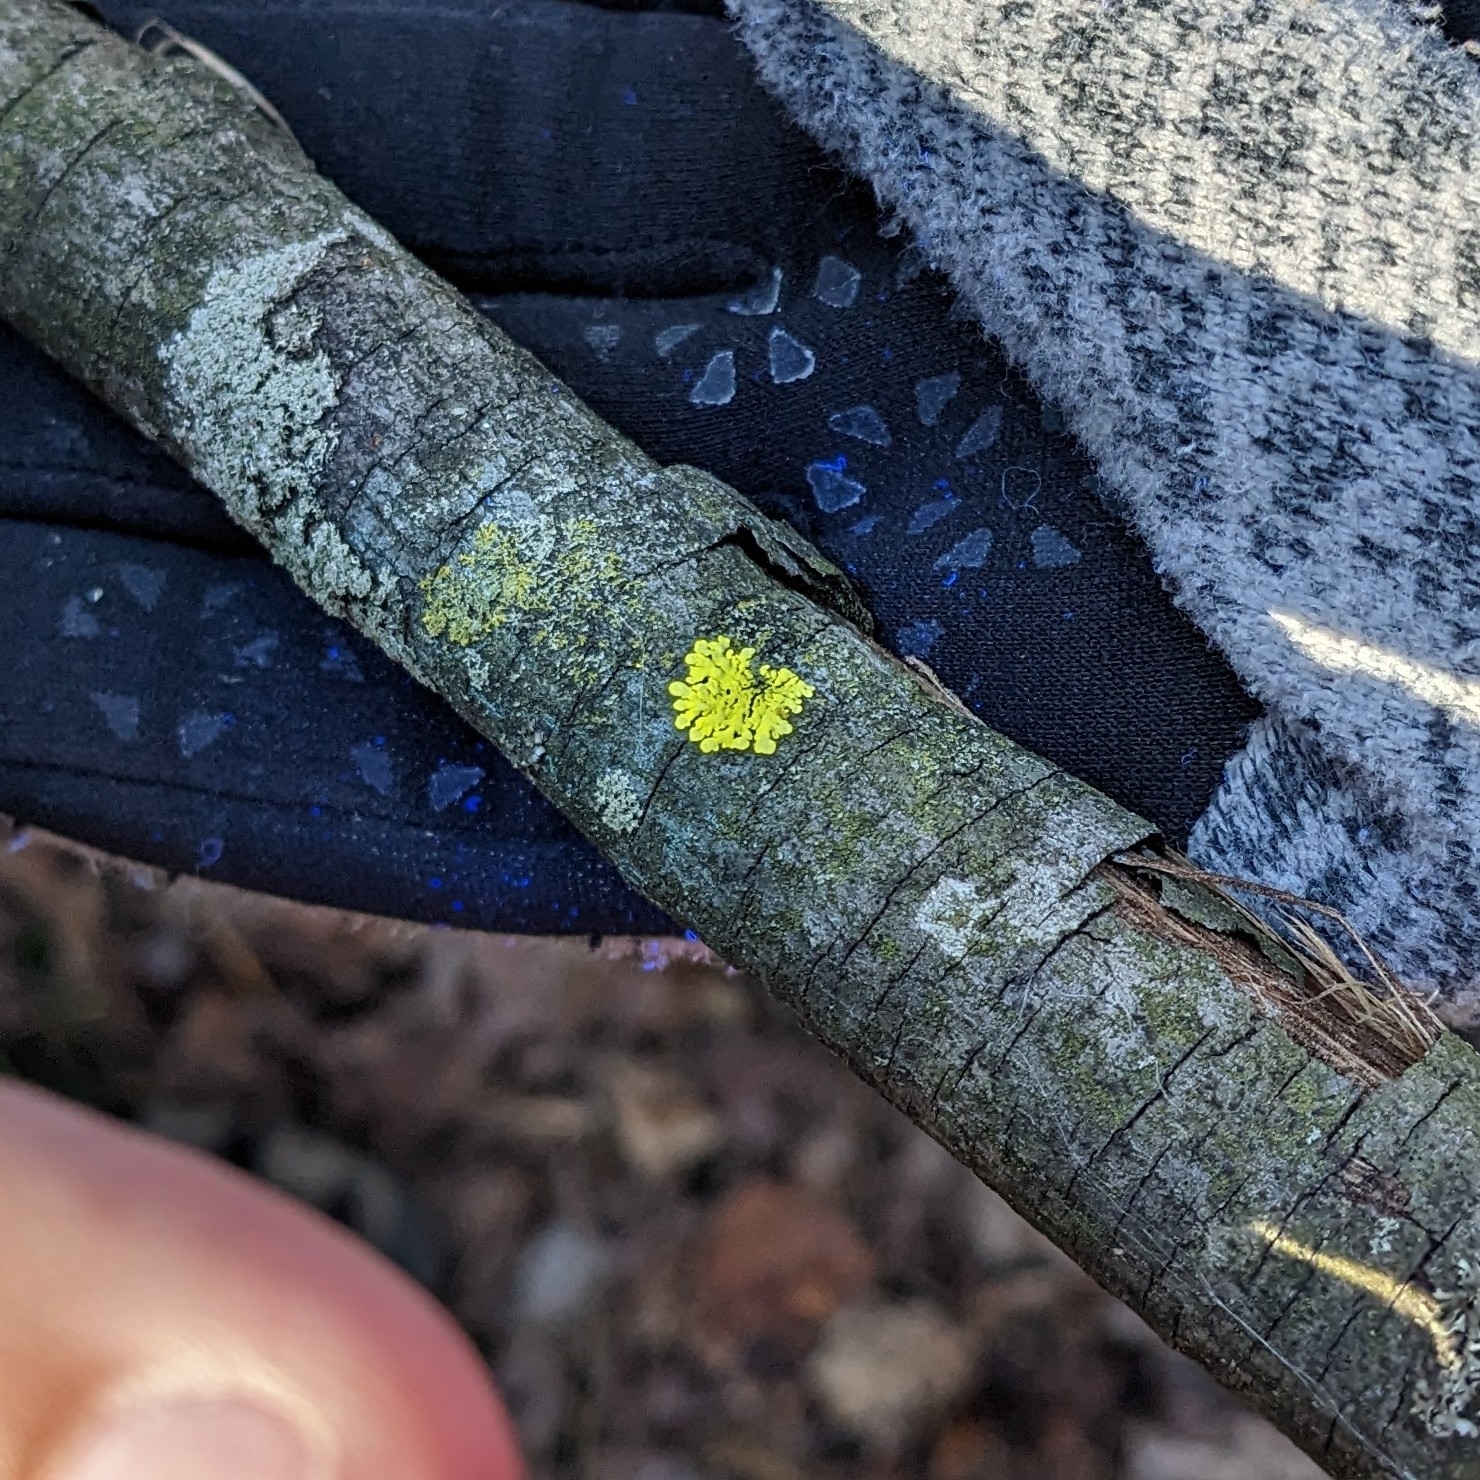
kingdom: Fungi
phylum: Ascomycota
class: Lecanoromycetes
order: Caliciales
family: Caliciaceae
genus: Pyxine
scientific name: Pyxine subcinerea
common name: Mustard lichen
